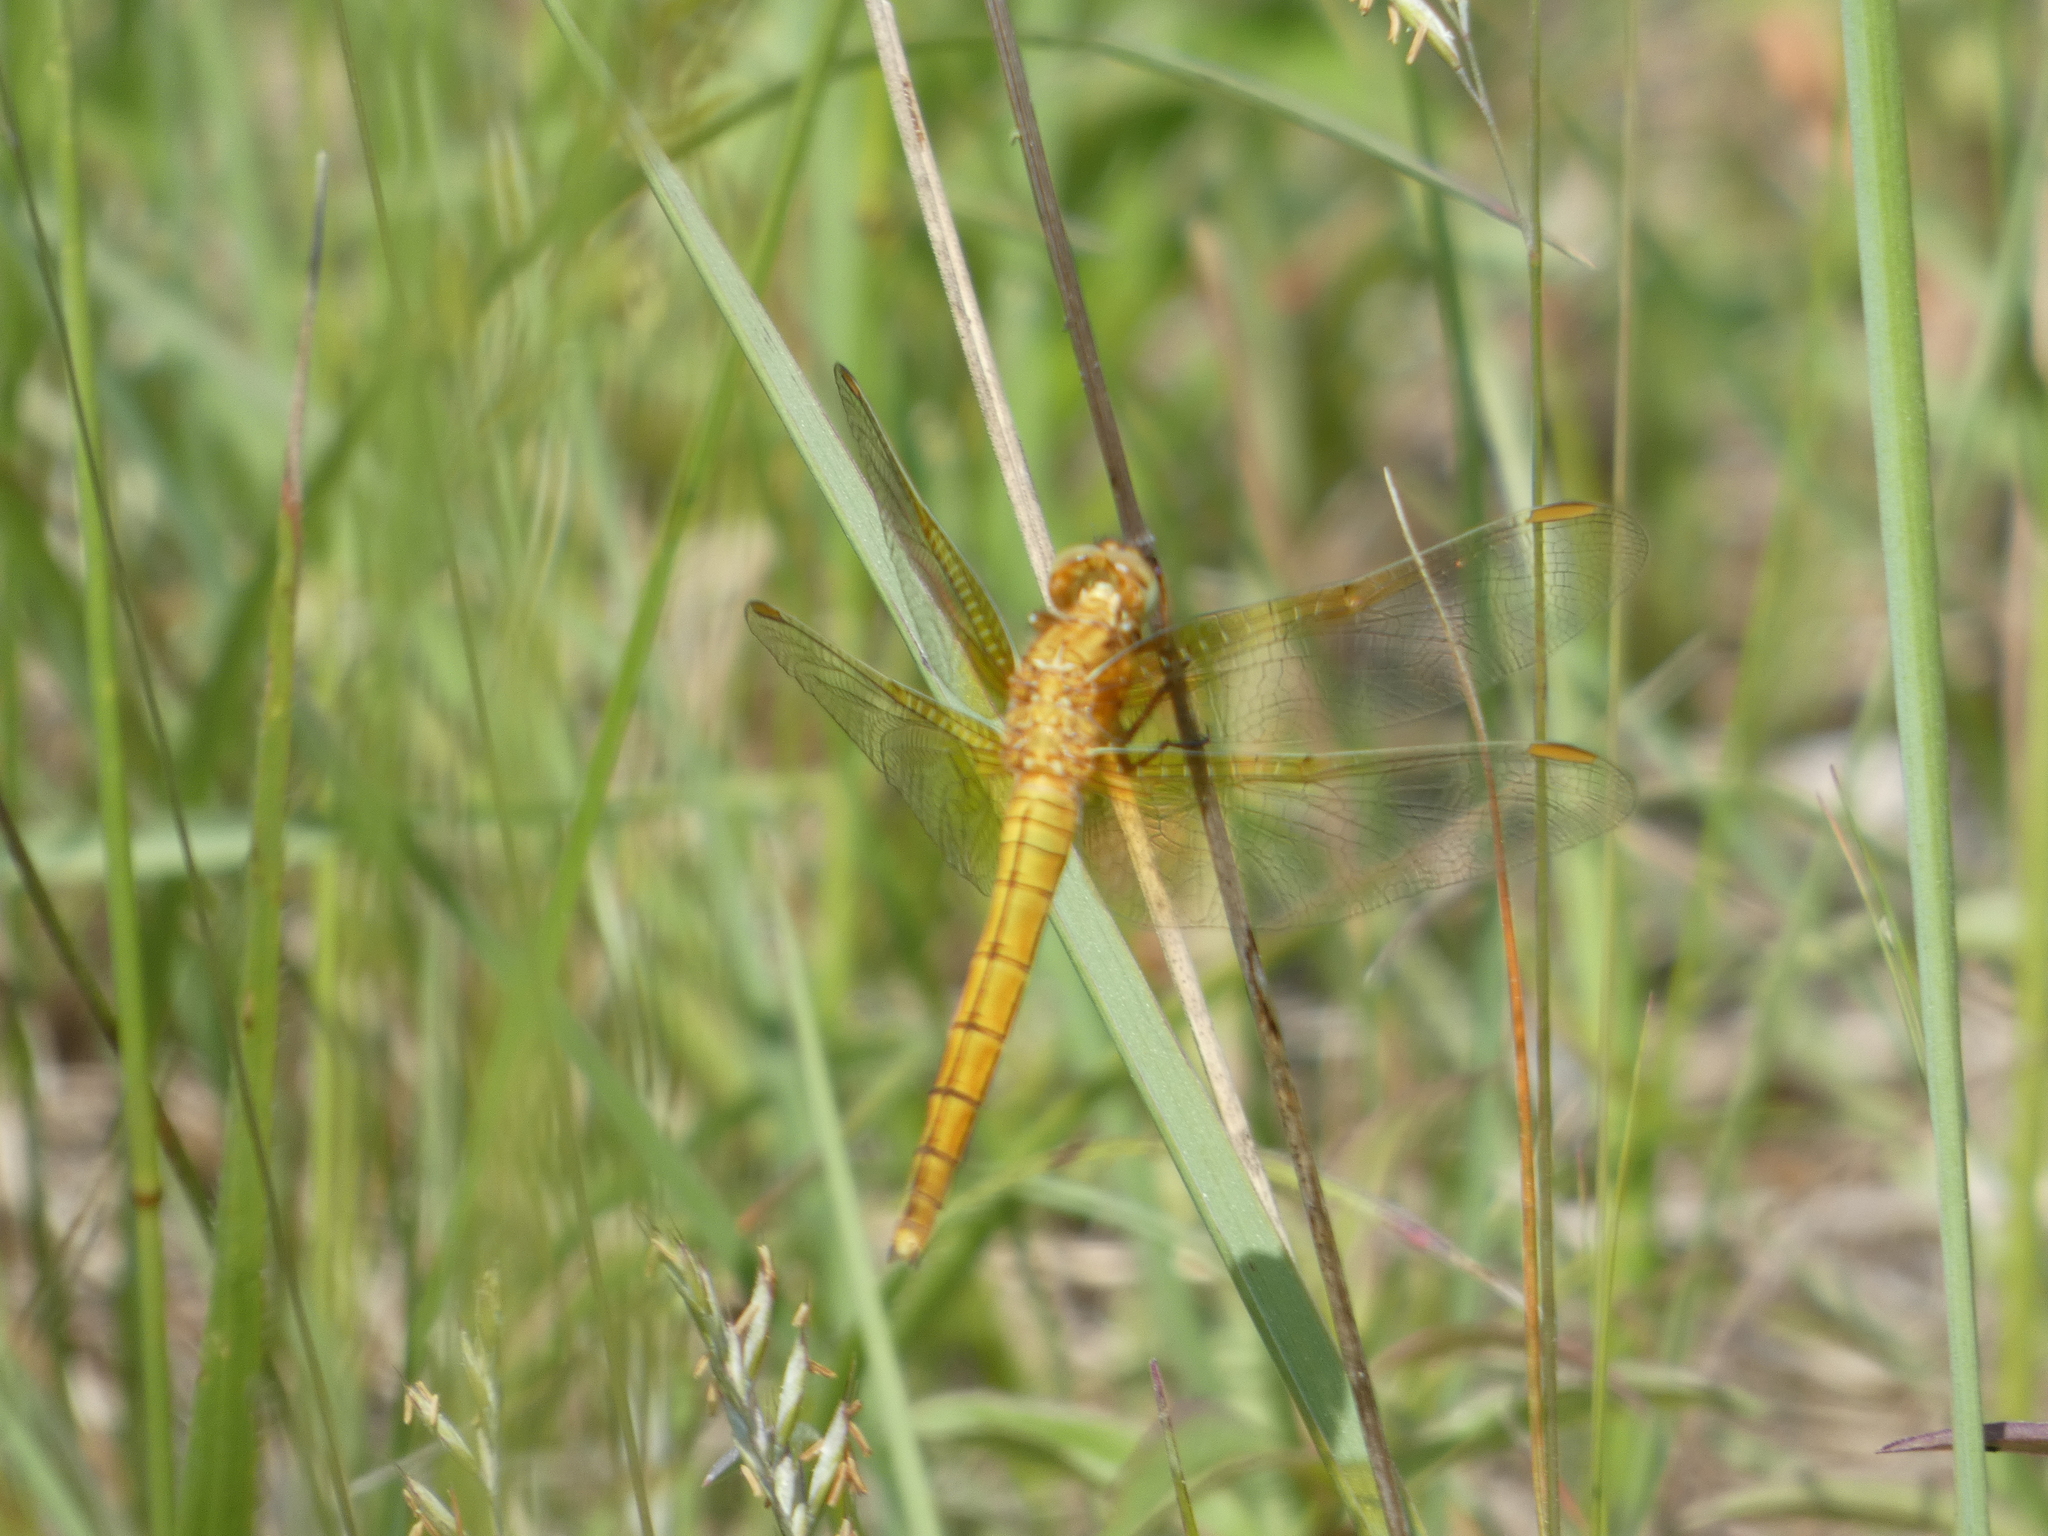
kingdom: Animalia
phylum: Arthropoda
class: Insecta
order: Odonata
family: Libellulidae
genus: Orthetrum
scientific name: Orthetrum coerulescens
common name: Keeled skimmer
